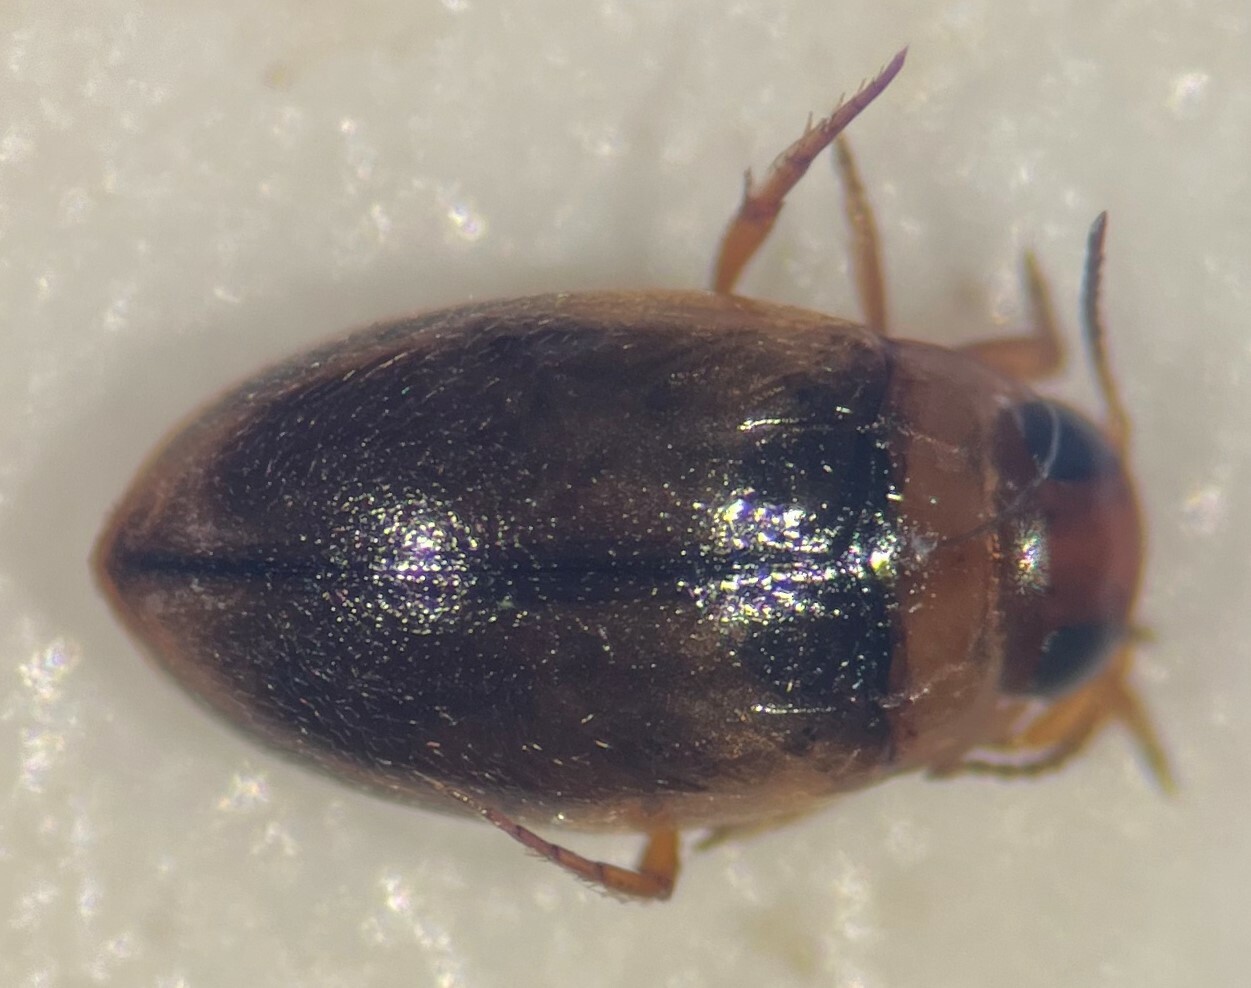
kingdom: Animalia
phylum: Arthropoda
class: Insecta
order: Coleoptera
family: Dytiscidae
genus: Uvarus
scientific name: Uvarus lacustris
